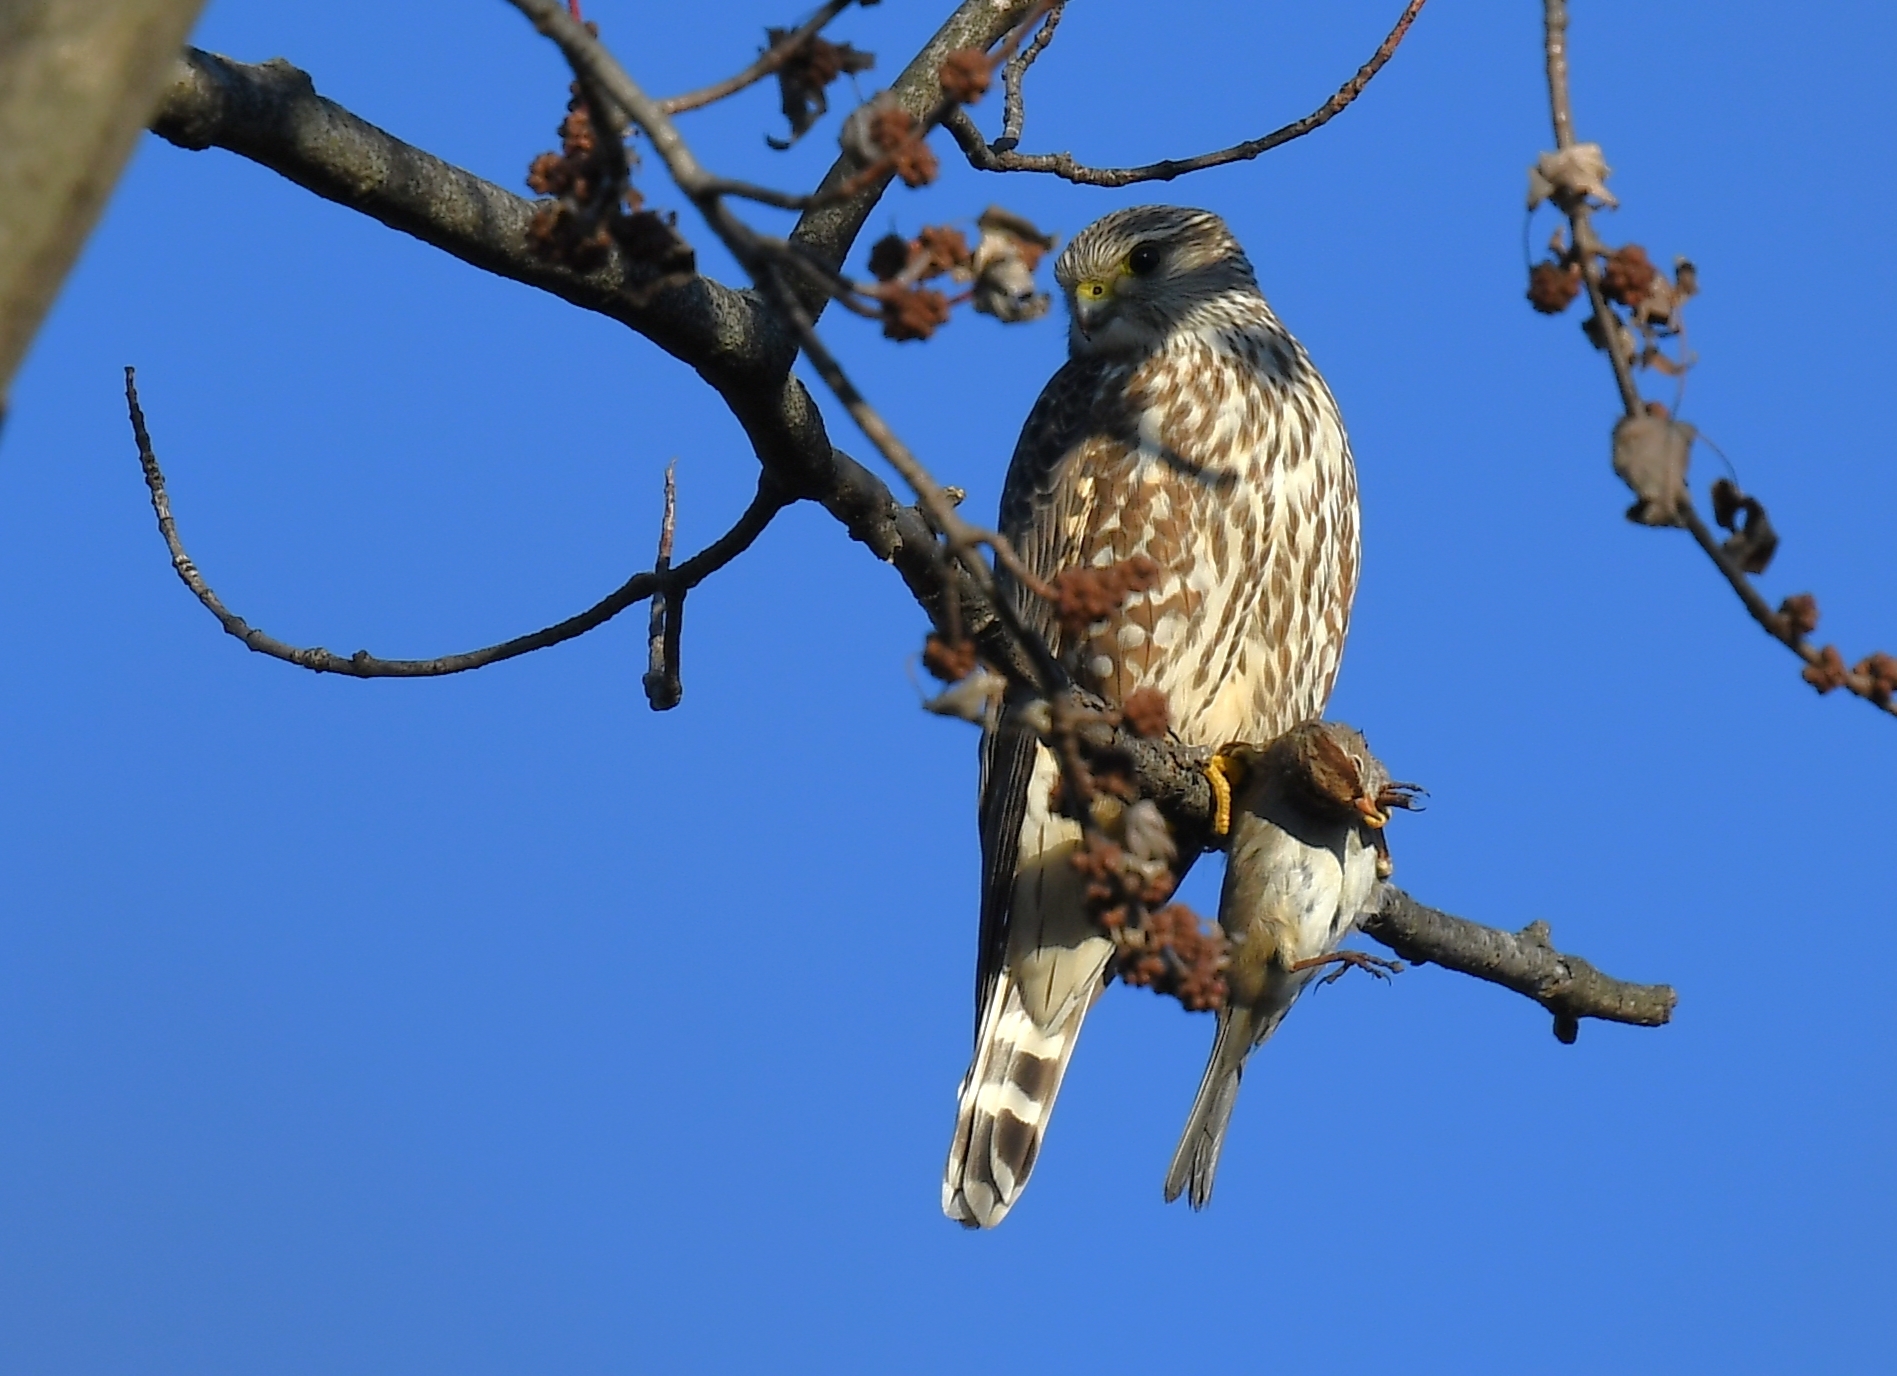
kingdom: Animalia
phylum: Chordata
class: Aves
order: Falconiformes
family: Falconidae
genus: Falco
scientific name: Falco columbarius
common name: Merlin
